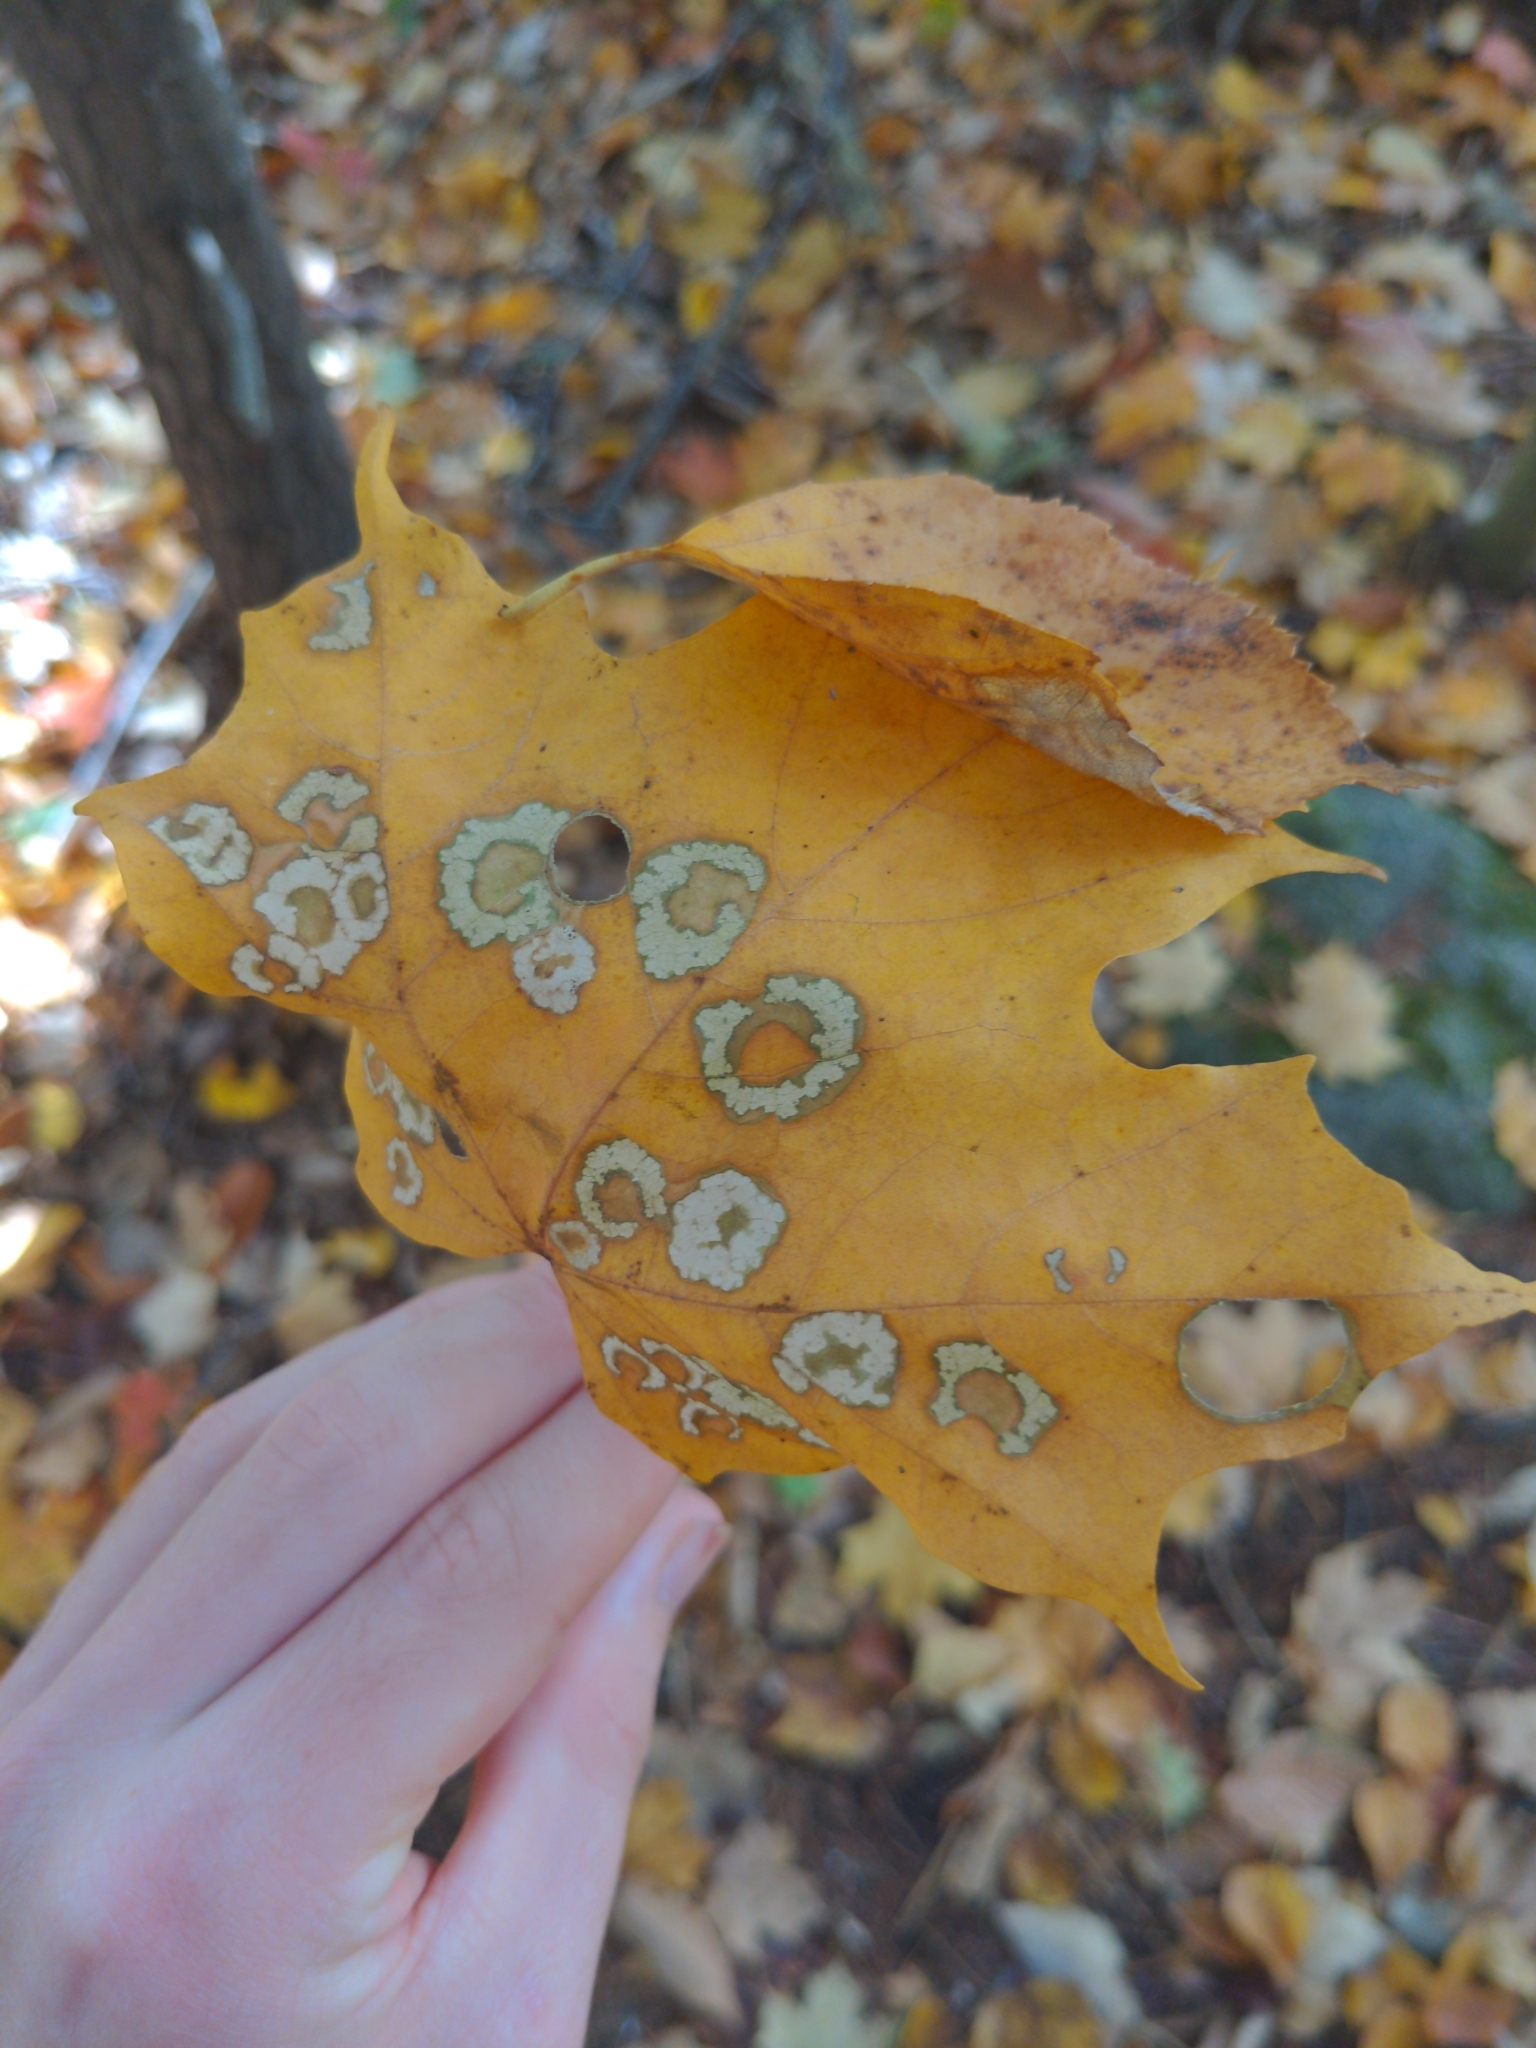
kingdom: Plantae
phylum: Tracheophyta
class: Magnoliopsida
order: Sapindales
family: Sapindaceae
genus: Acer
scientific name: Acer saccharum
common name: Sugar maple
